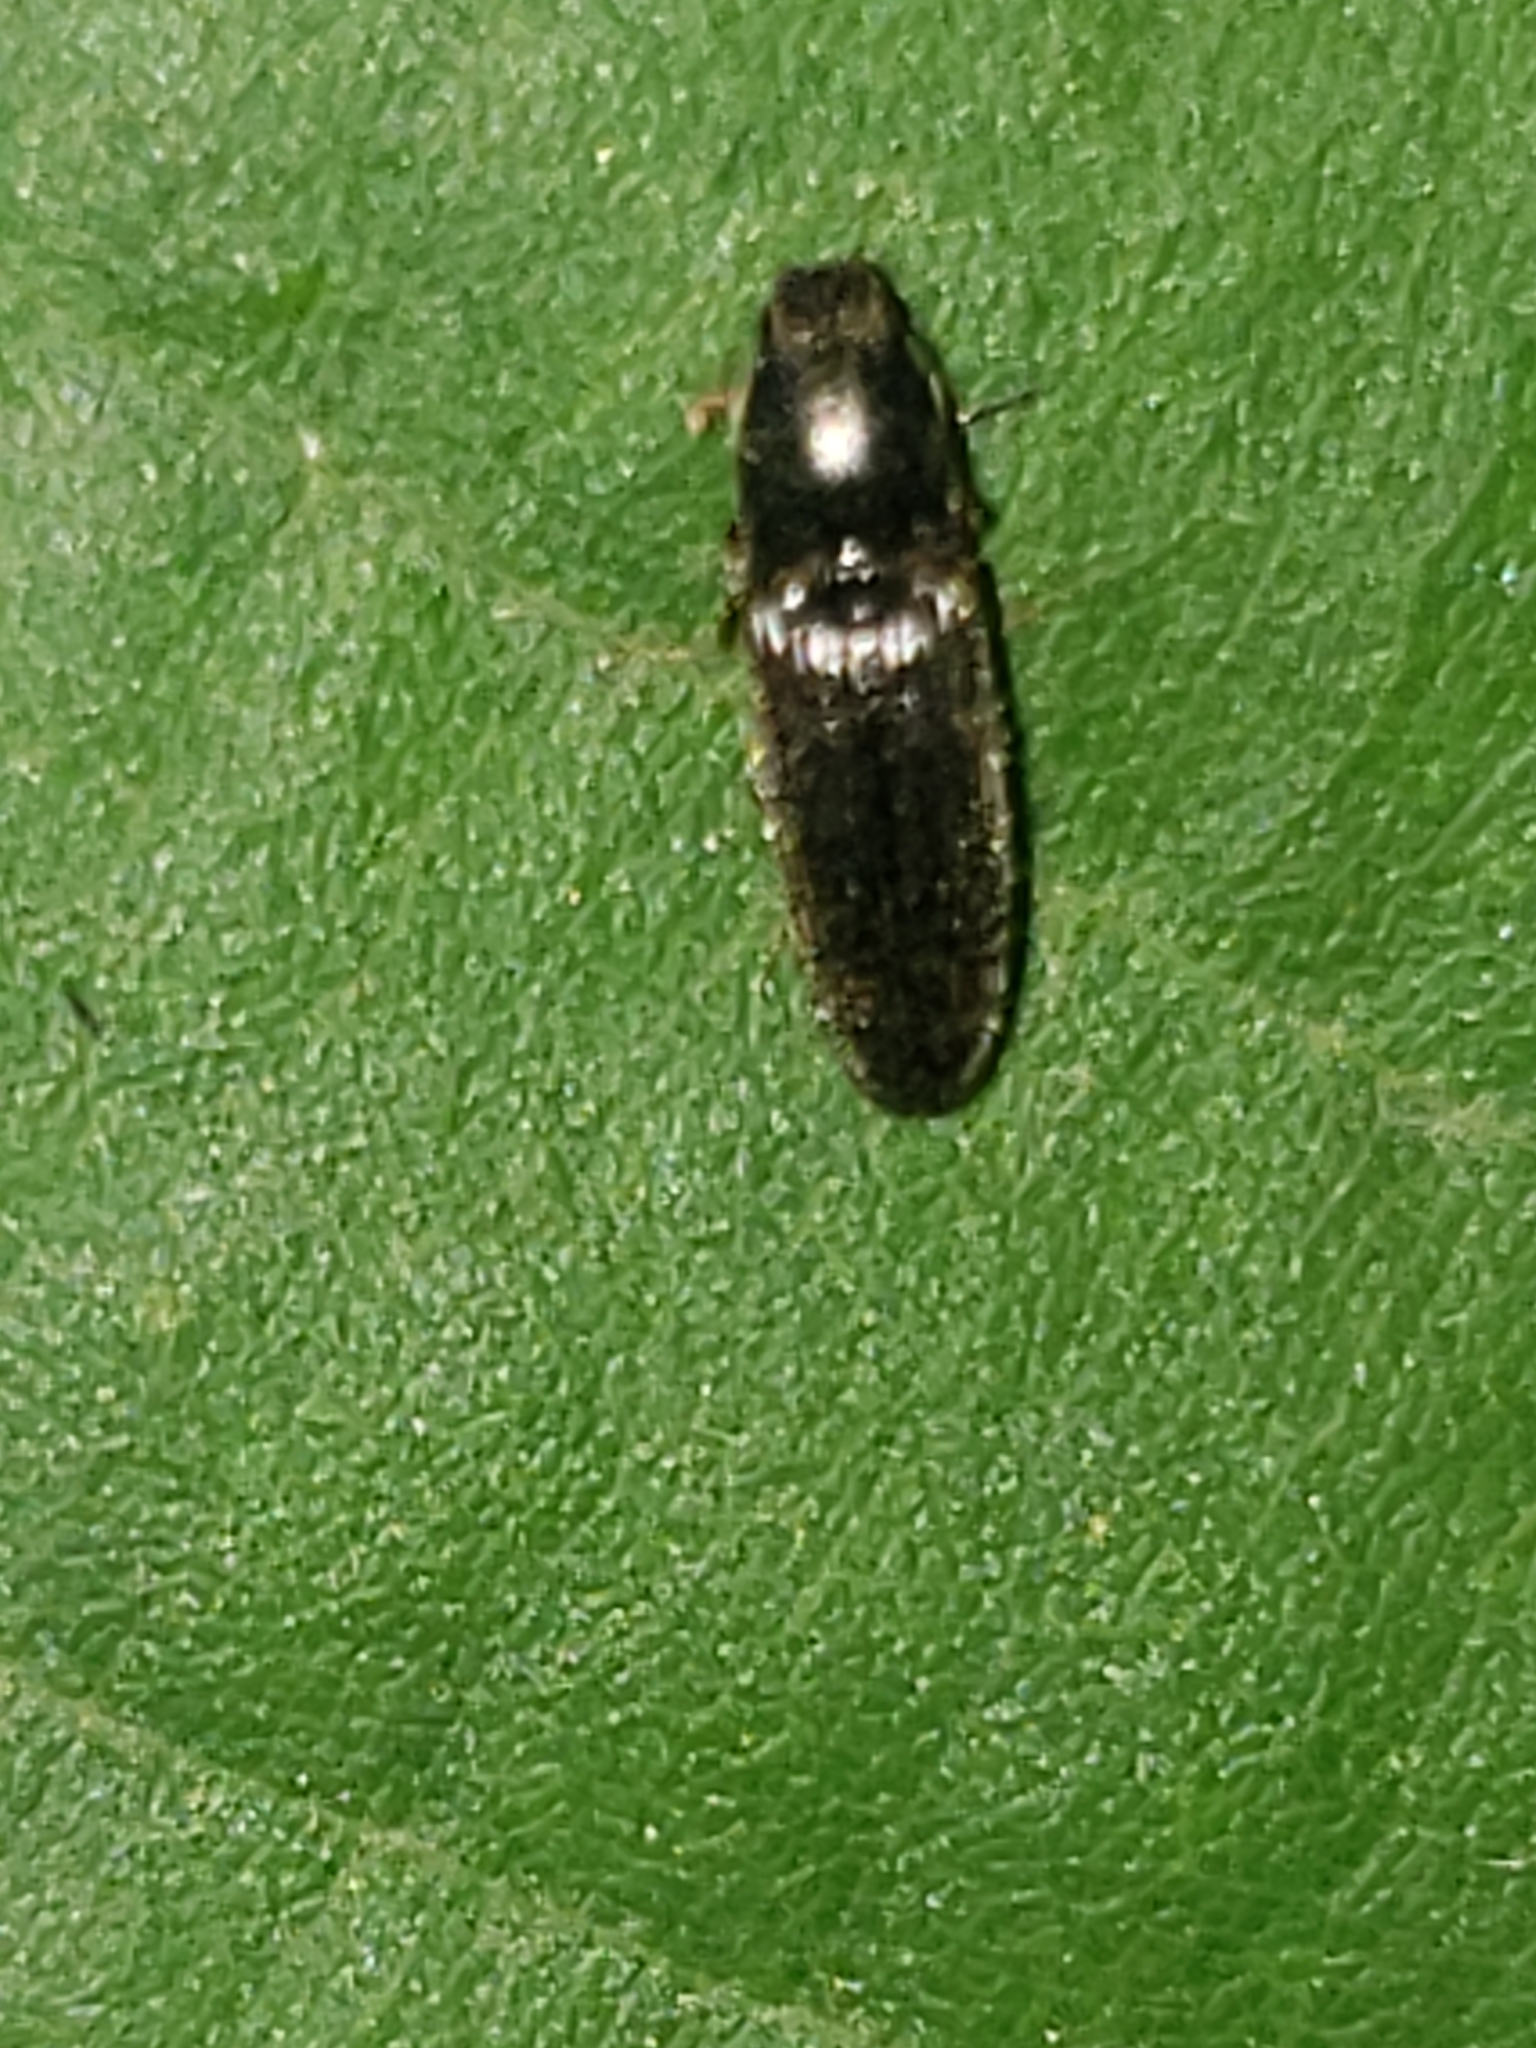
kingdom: Animalia
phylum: Arthropoda
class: Insecta
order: Coleoptera
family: Elateridae
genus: Limonius
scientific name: Limonius quercinus
